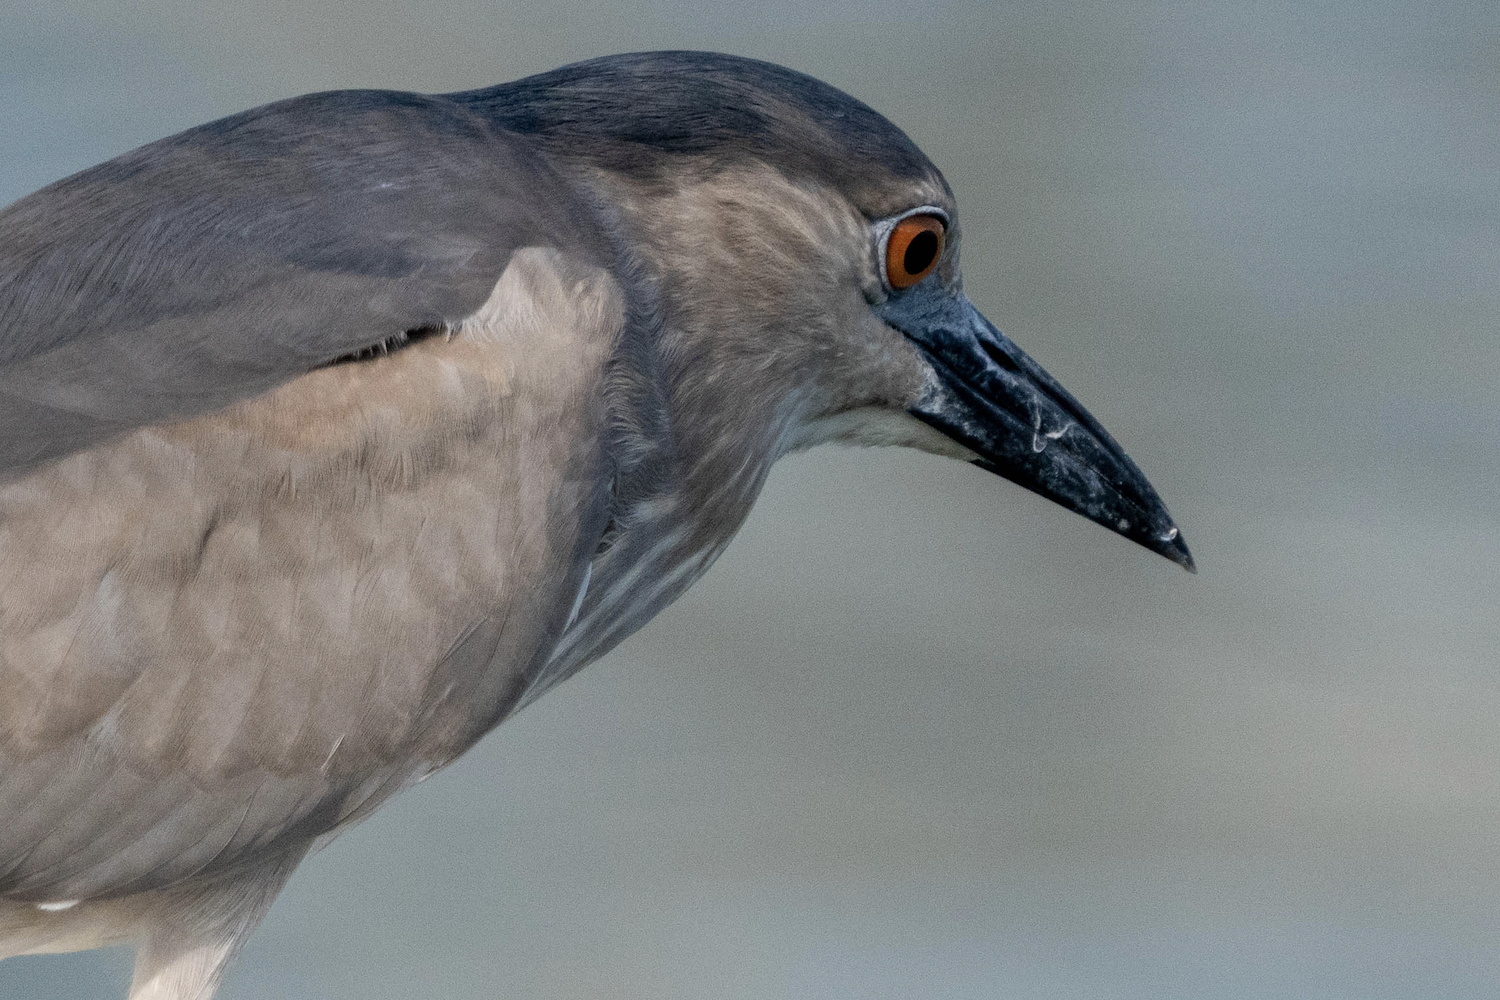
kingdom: Animalia
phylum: Chordata
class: Aves
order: Pelecaniformes
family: Ardeidae
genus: Nycticorax
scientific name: Nycticorax nycticorax
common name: Black-crowned night heron
